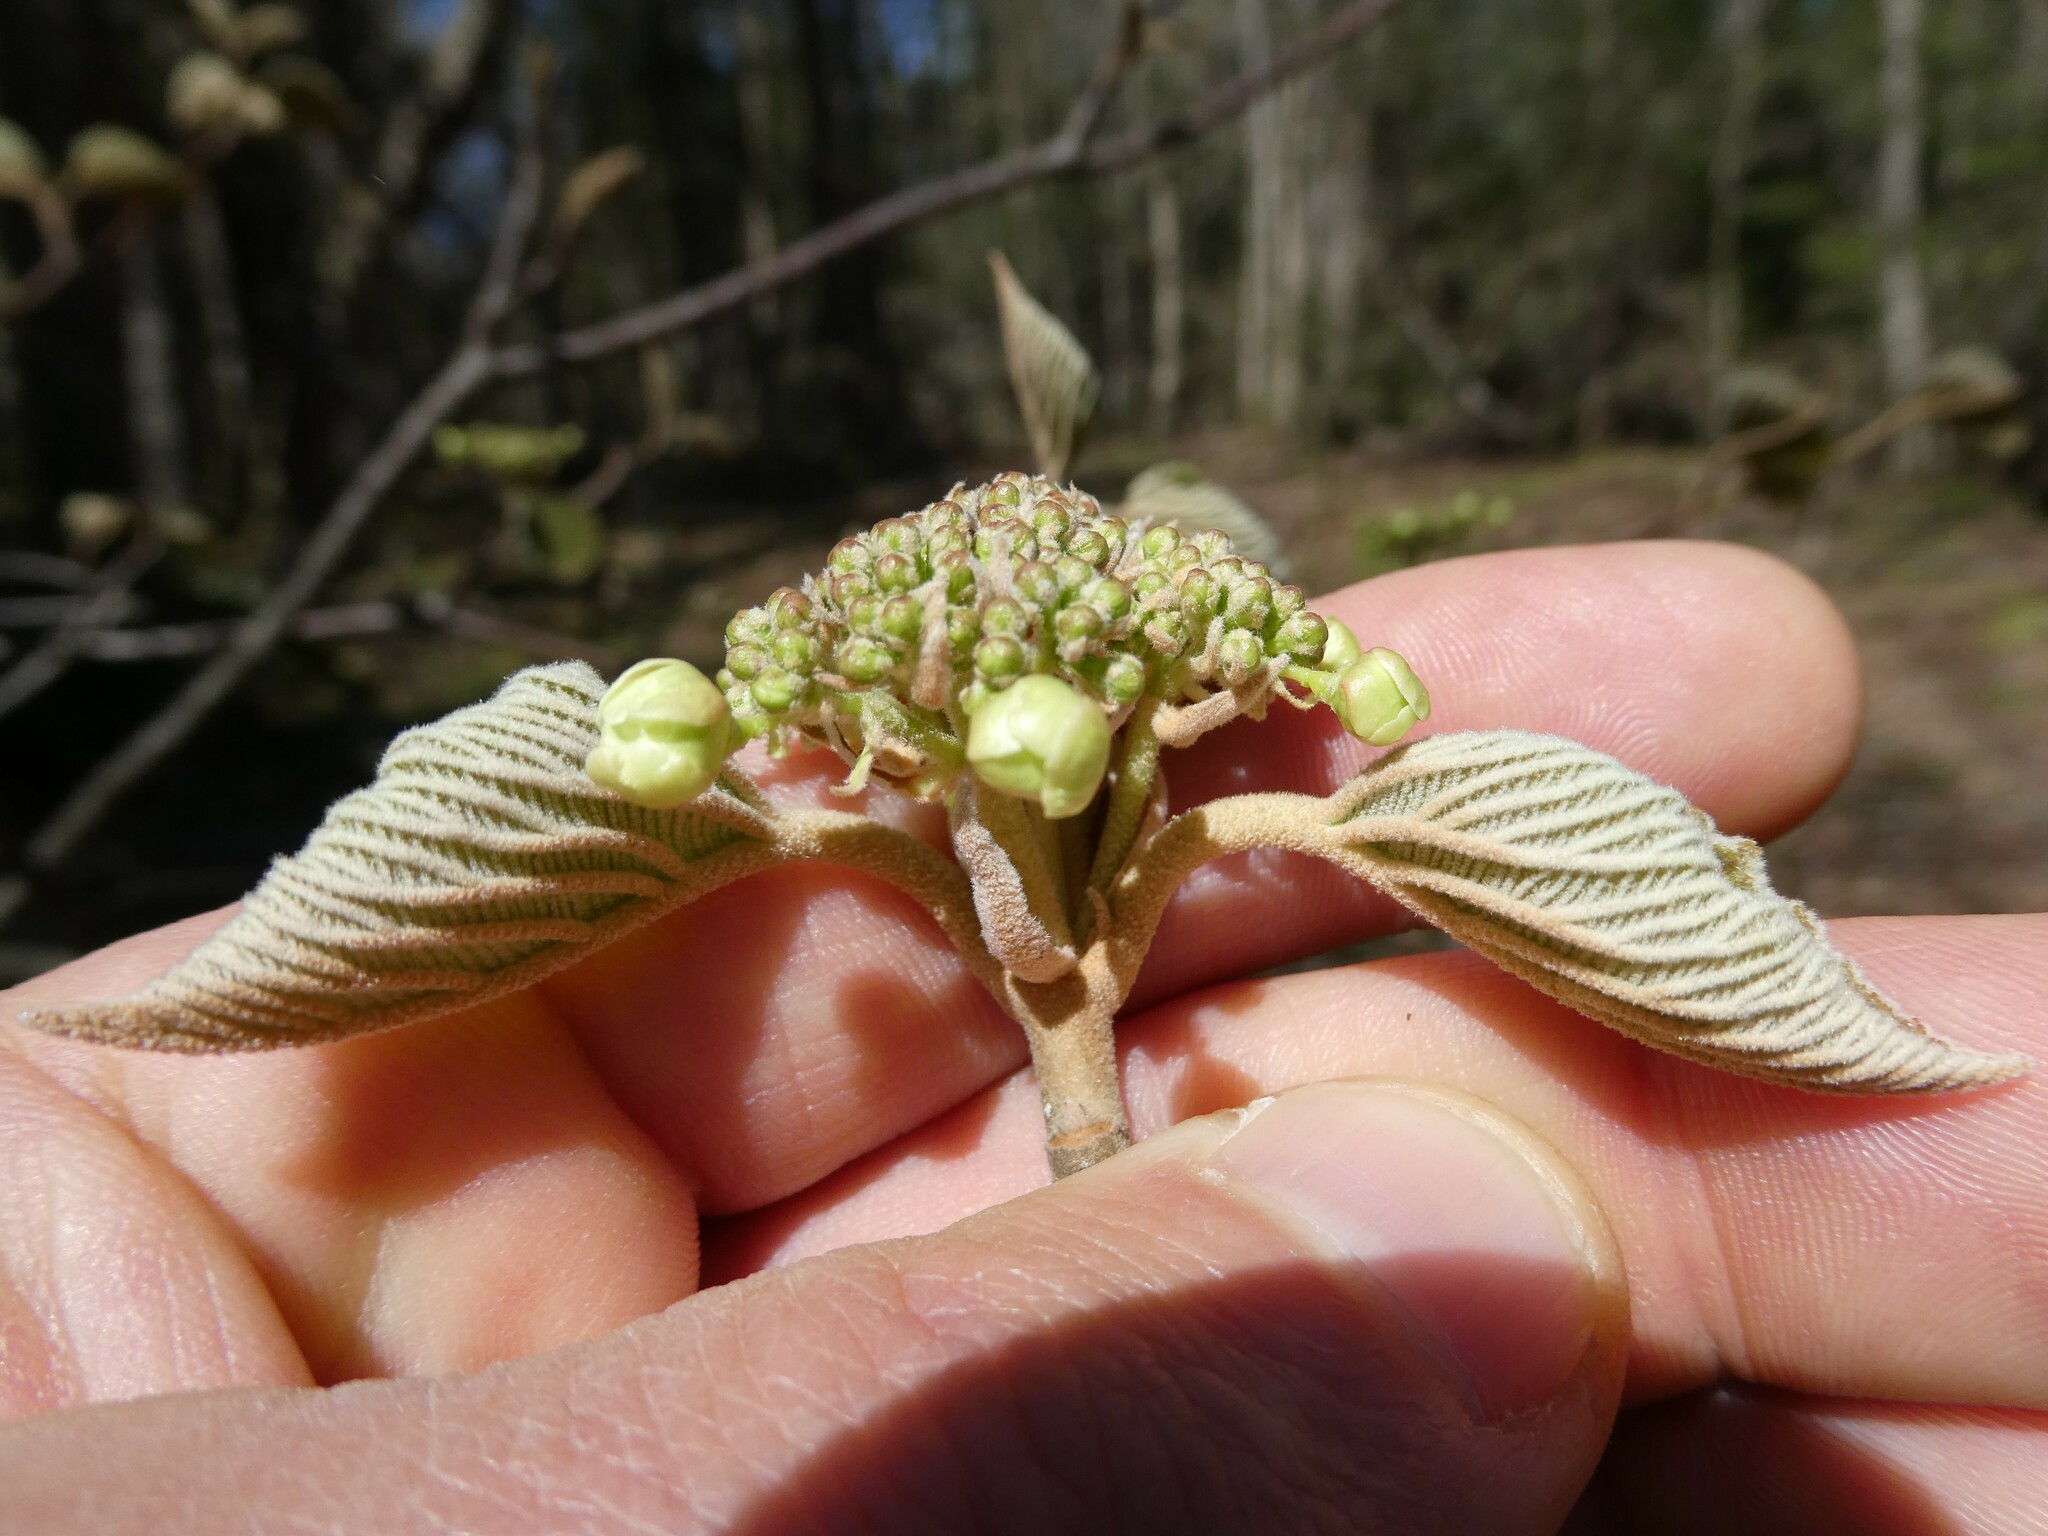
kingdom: Plantae
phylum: Tracheophyta
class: Magnoliopsida
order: Dipsacales
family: Viburnaceae
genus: Viburnum
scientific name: Viburnum lantanoides
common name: Hobblebush
